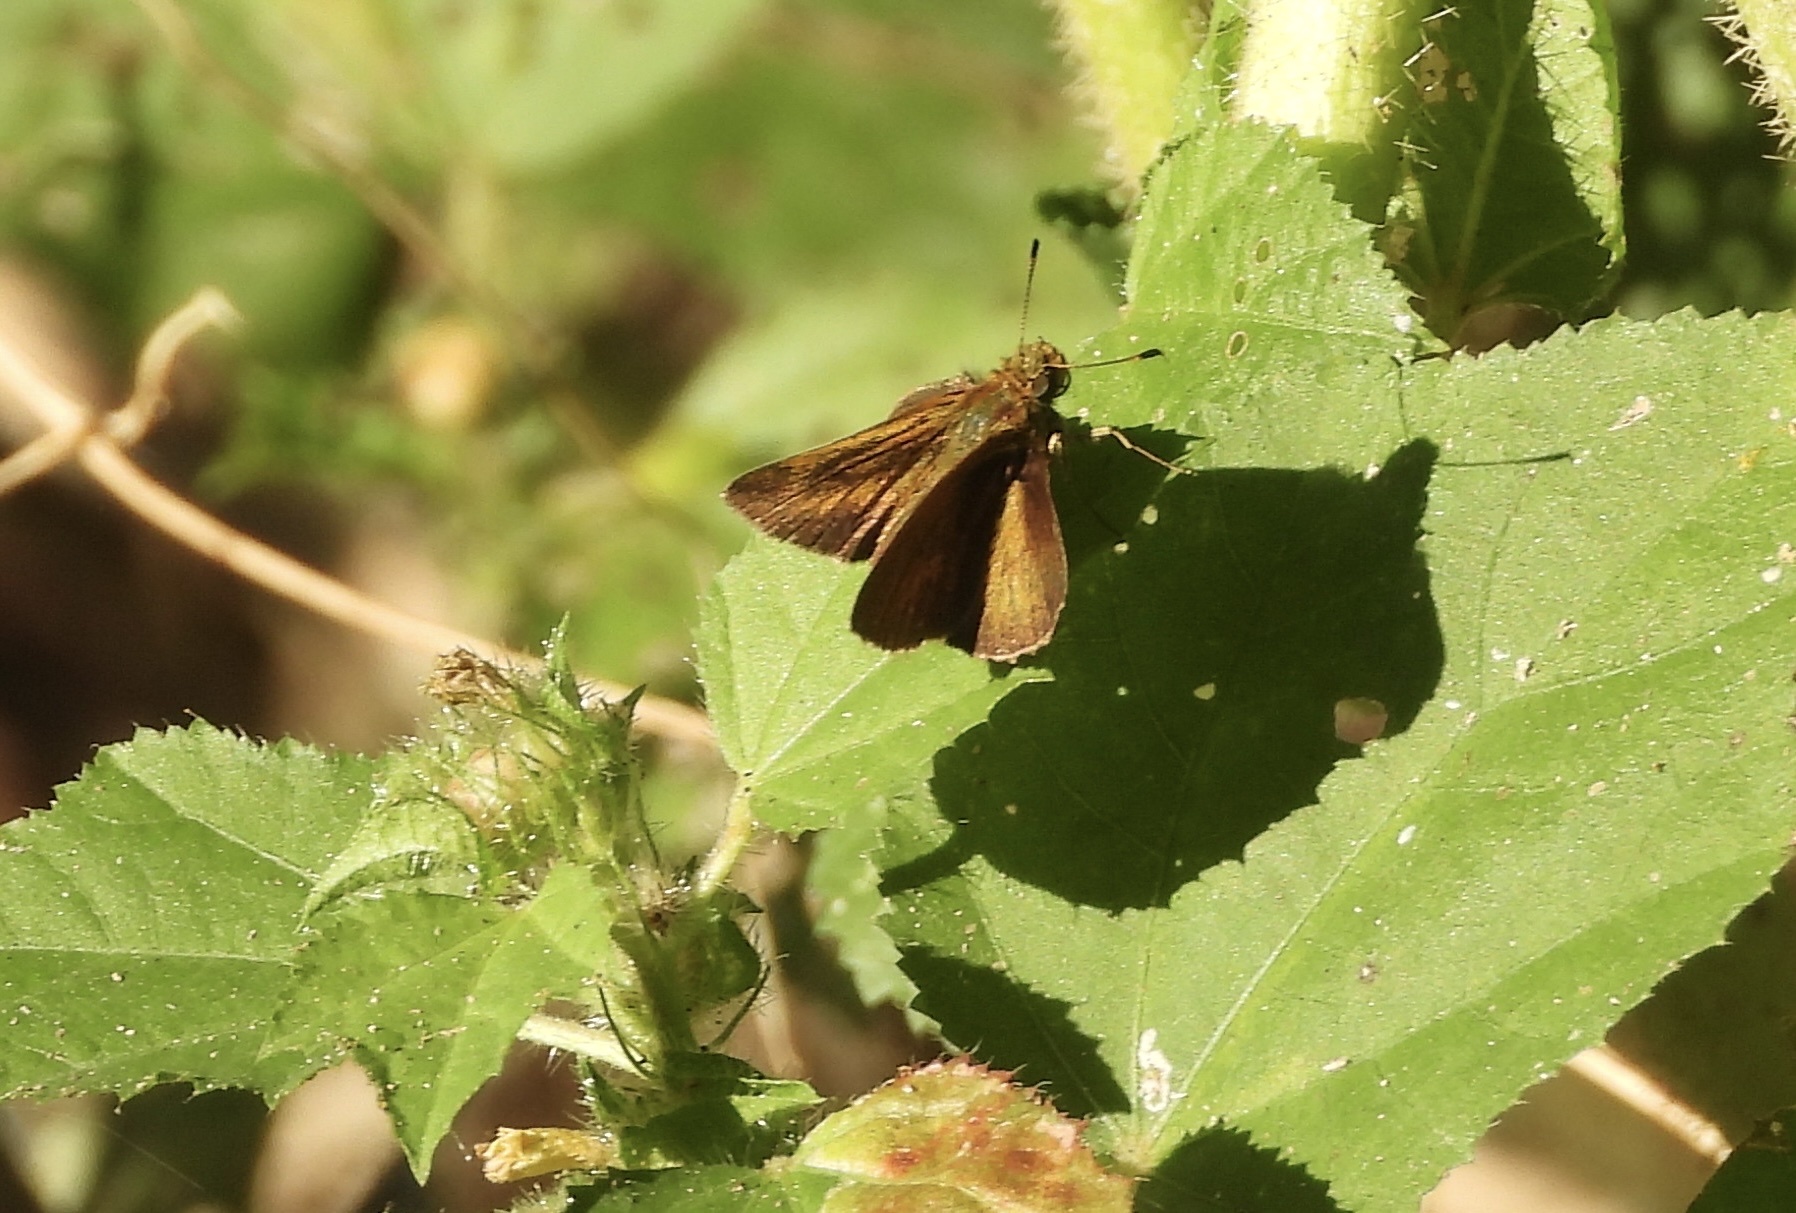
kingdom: Animalia
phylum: Arthropoda
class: Insecta
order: Lepidoptera
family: Hesperiidae
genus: Corticea
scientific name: Corticea corticea
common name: Redundant skipper
